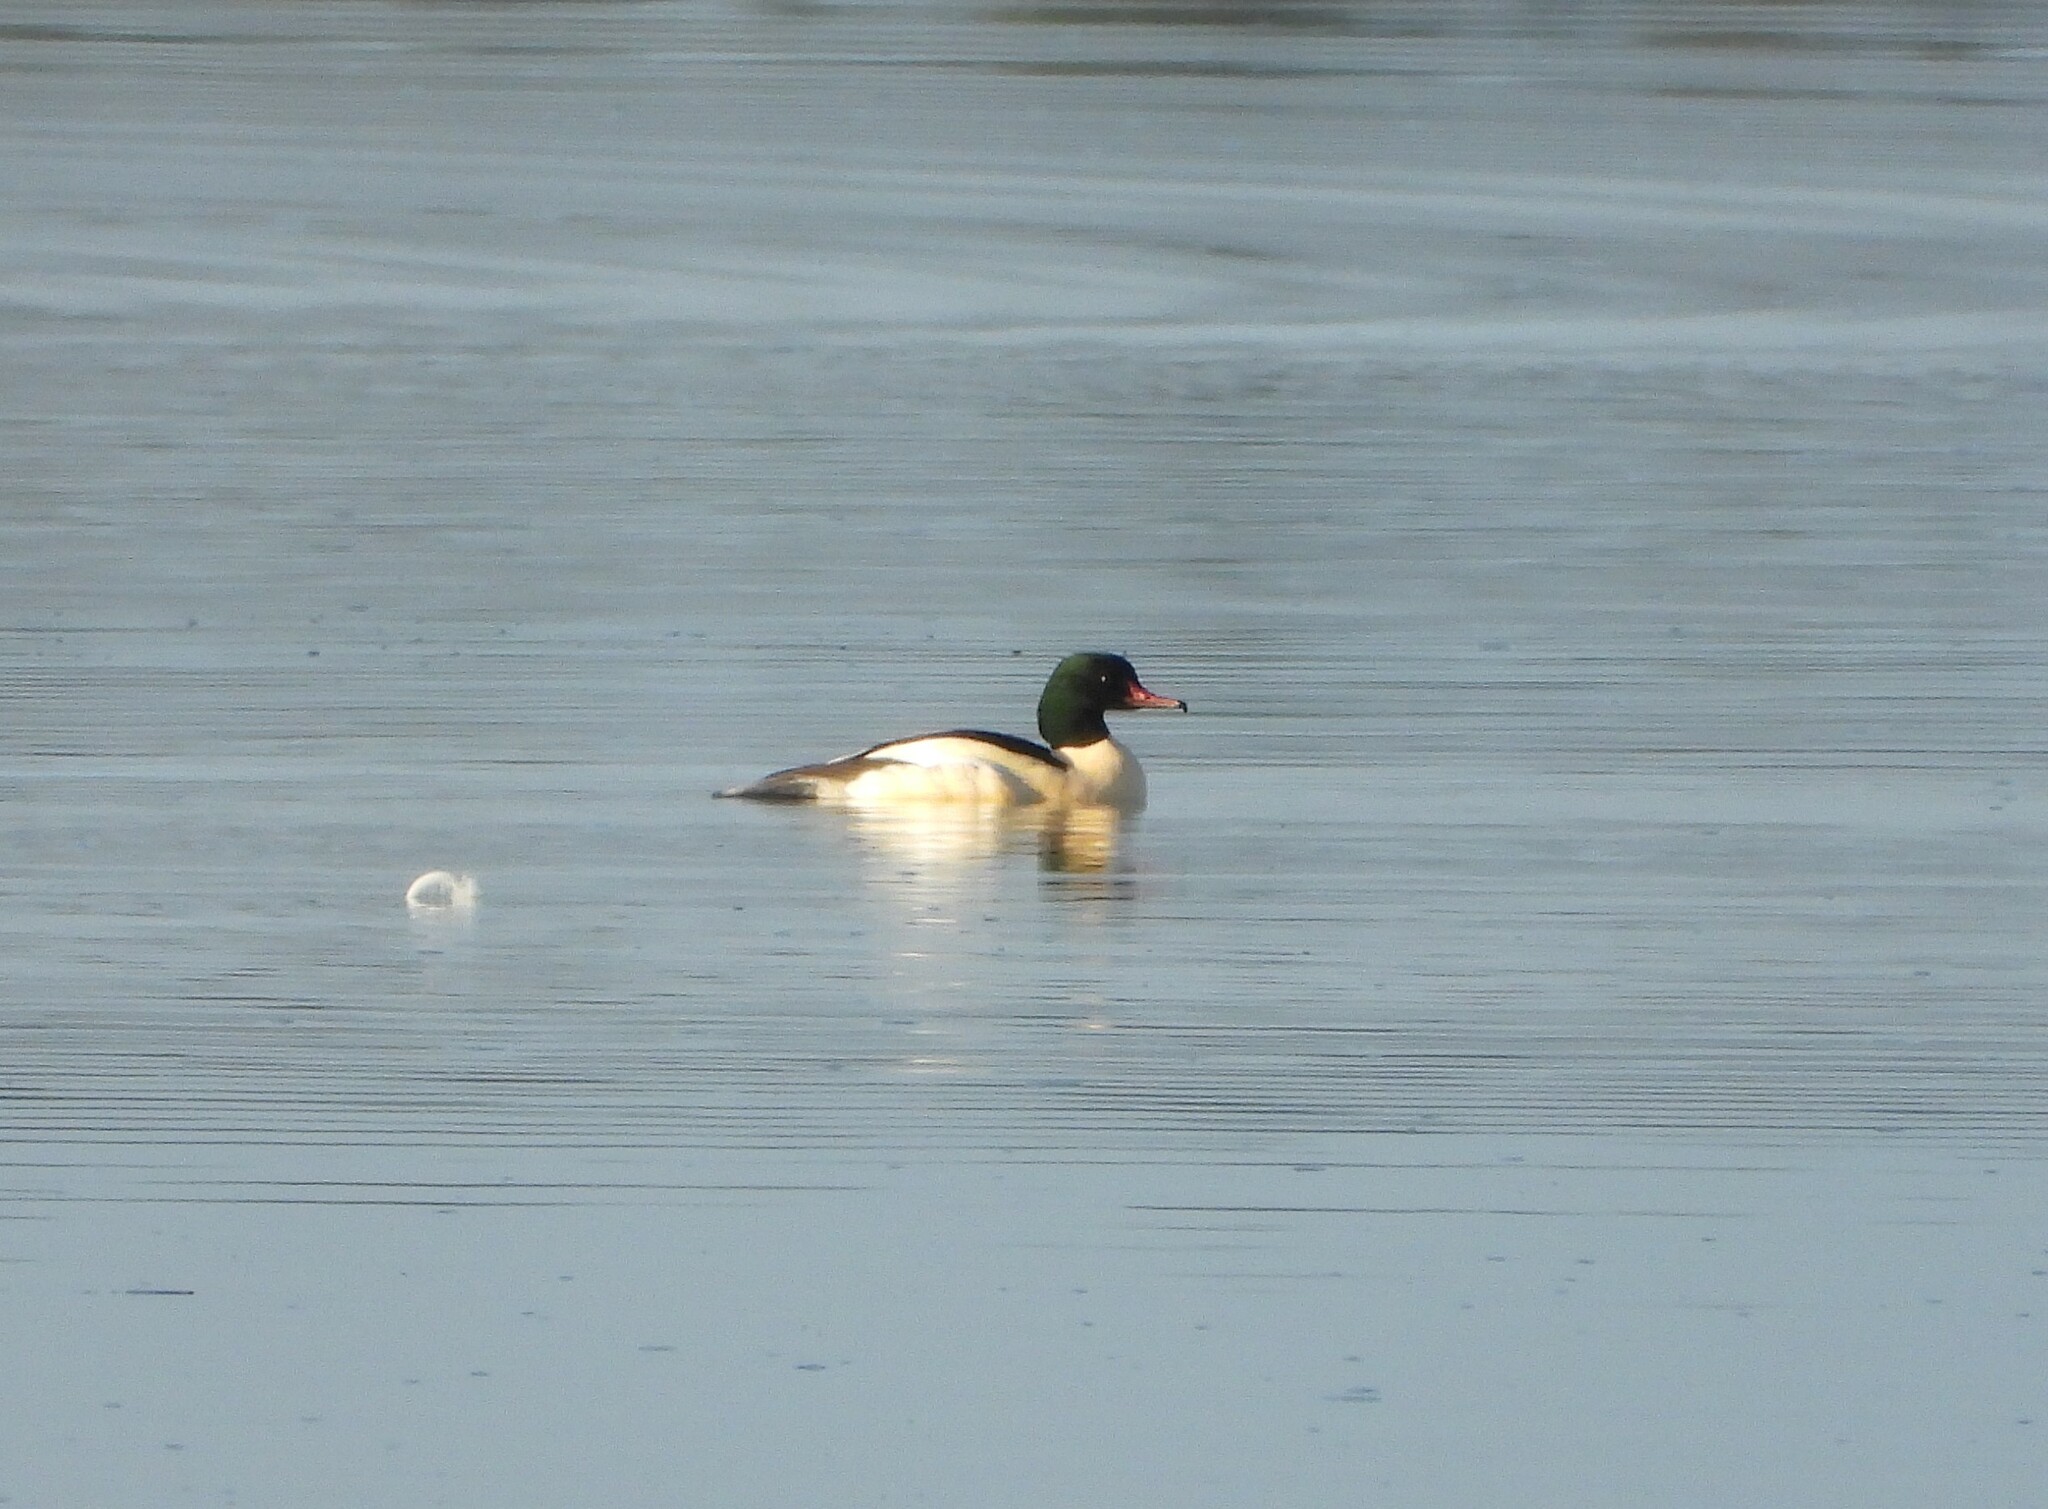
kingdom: Animalia
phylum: Chordata
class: Aves
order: Anseriformes
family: Anatidae
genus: Mergus
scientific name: Mergus merganser
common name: Common merganser
